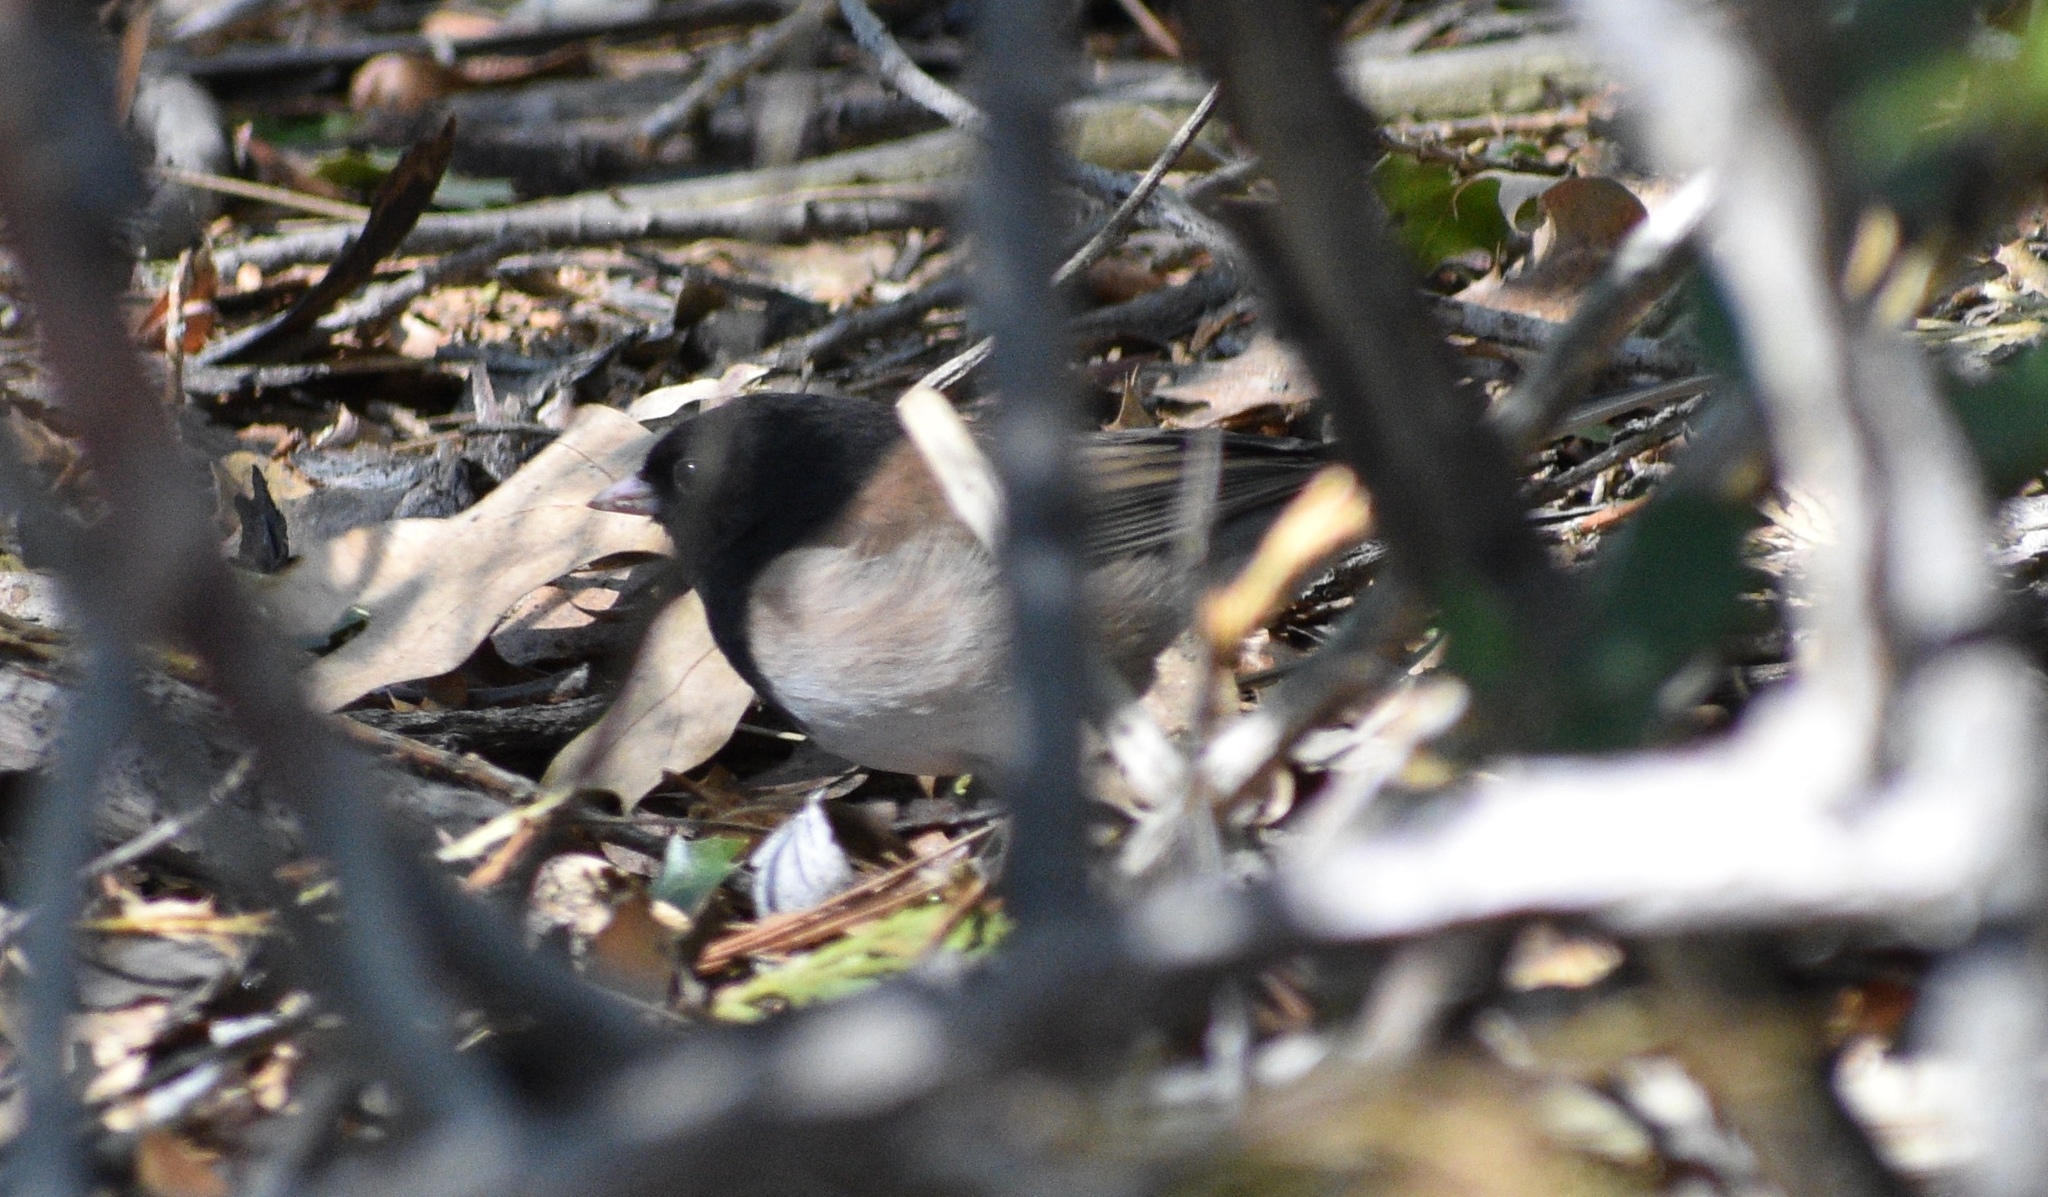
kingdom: Animalia
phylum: Chordata
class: Aves
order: Passeriformes
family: Passerellidae
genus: Junco
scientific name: Junco hyemalis
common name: Dark-eyed junco
